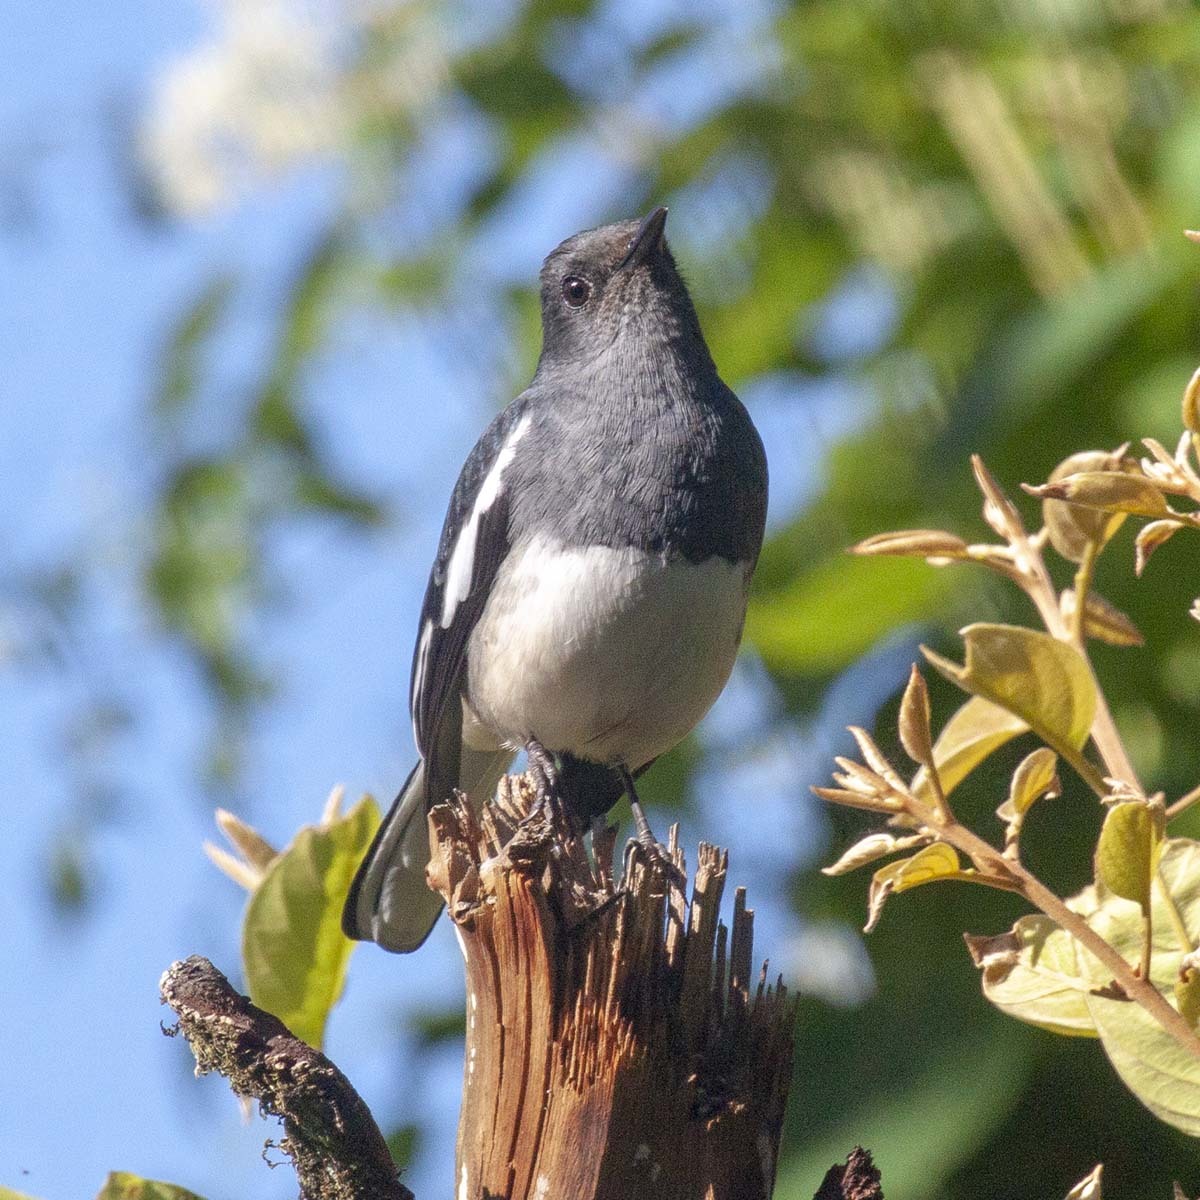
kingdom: Animalia
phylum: Chordata
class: Aves
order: Passeriformes
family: Muscicapidae
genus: Copsychus
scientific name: Copsychus saularis
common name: Oriental magpie-robin
